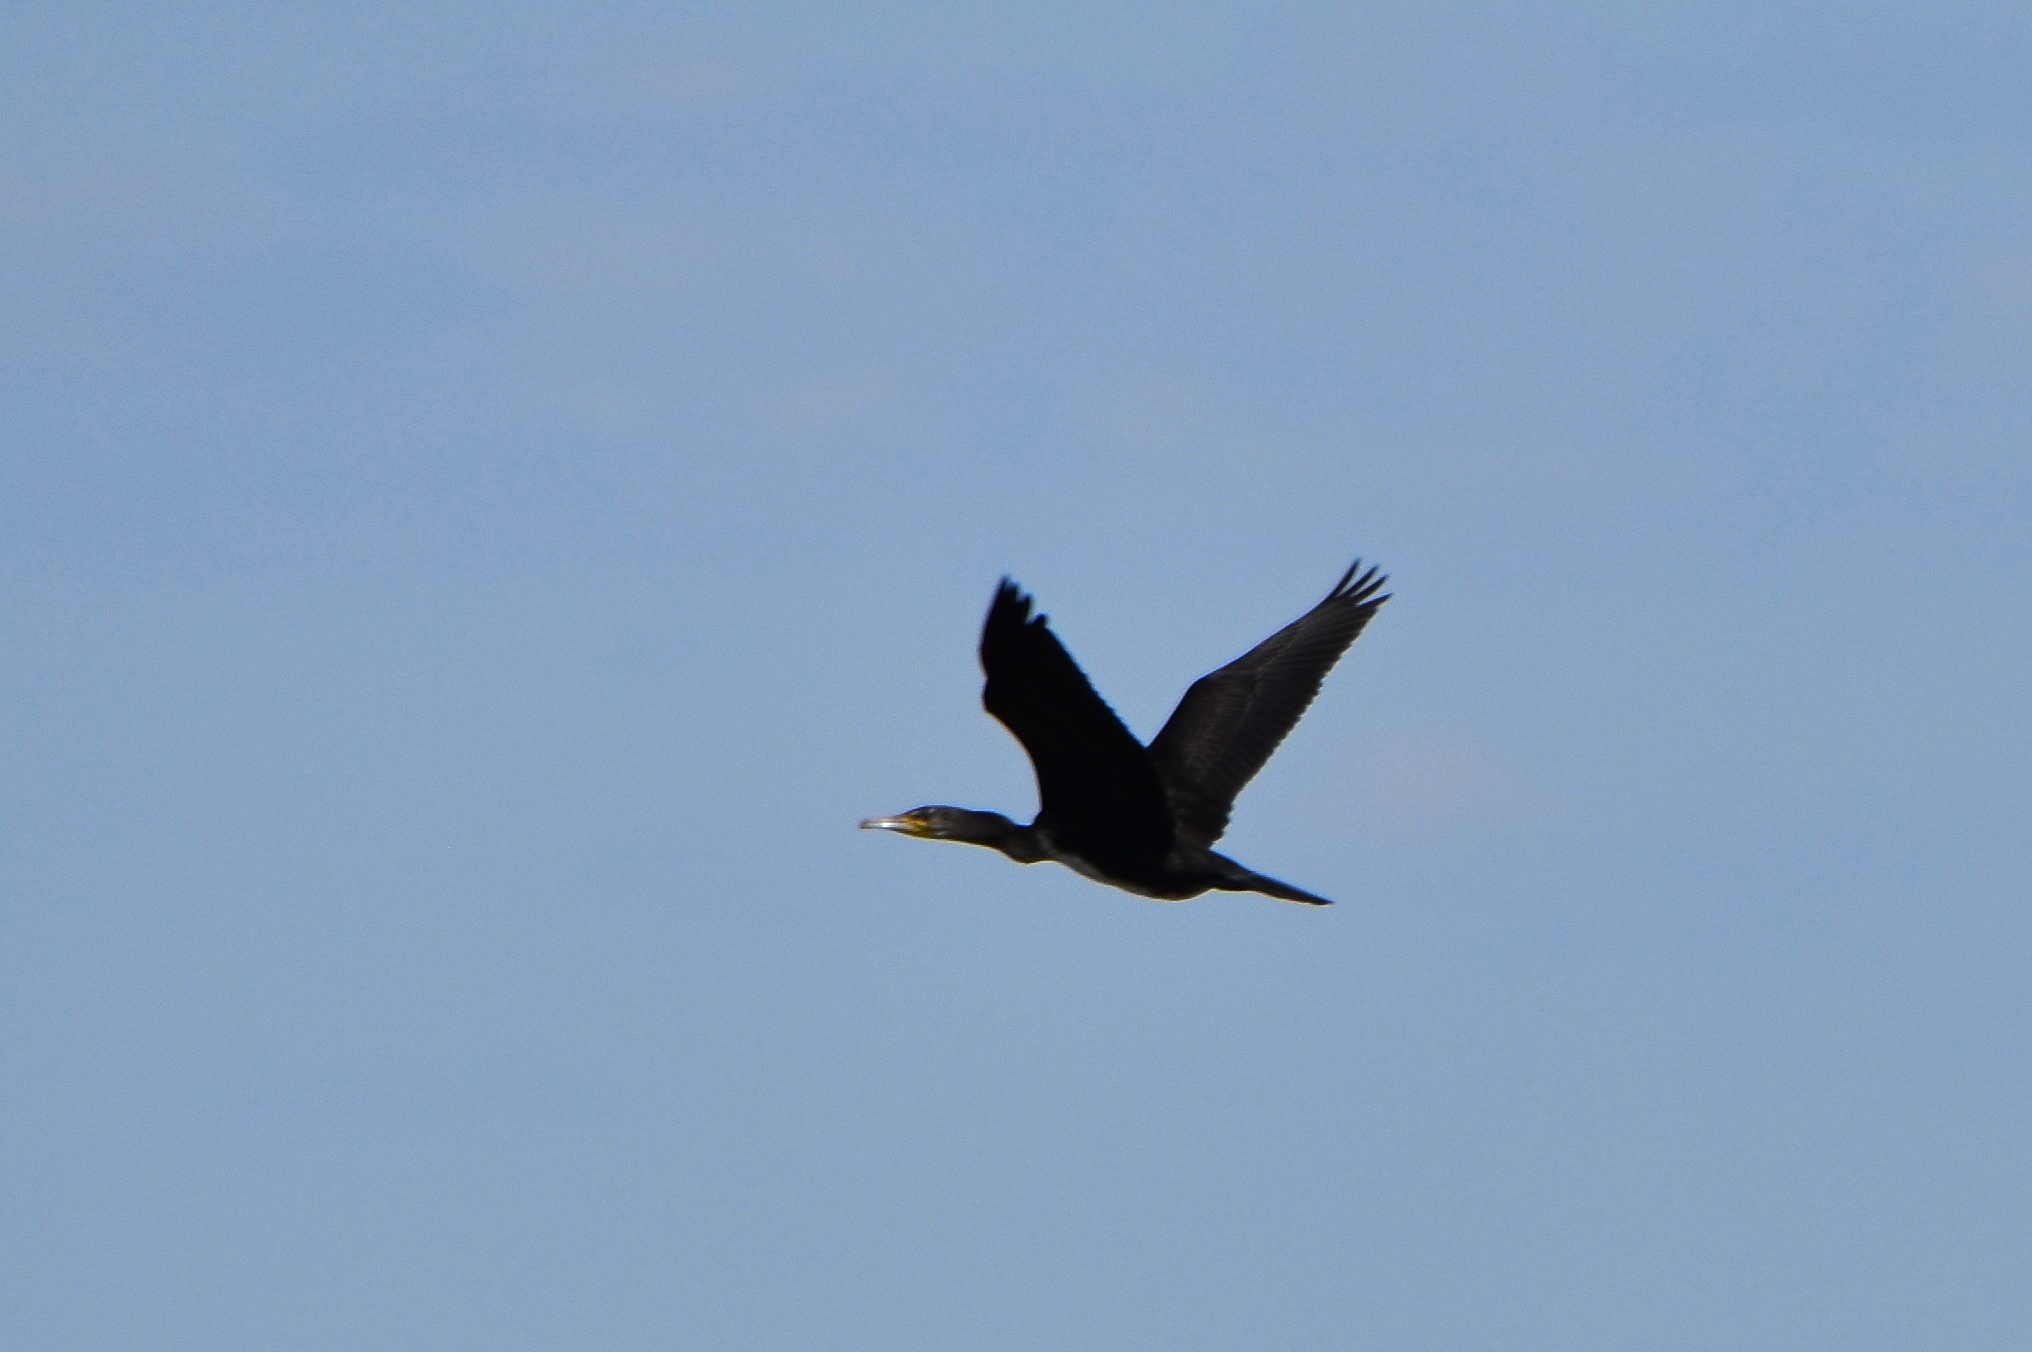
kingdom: Animalia
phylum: Chordata
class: Aves
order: Suliformes
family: Phalacrocoracidae
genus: Phalacrocorax
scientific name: Phalacrocorax carbo
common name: Great cormorant
